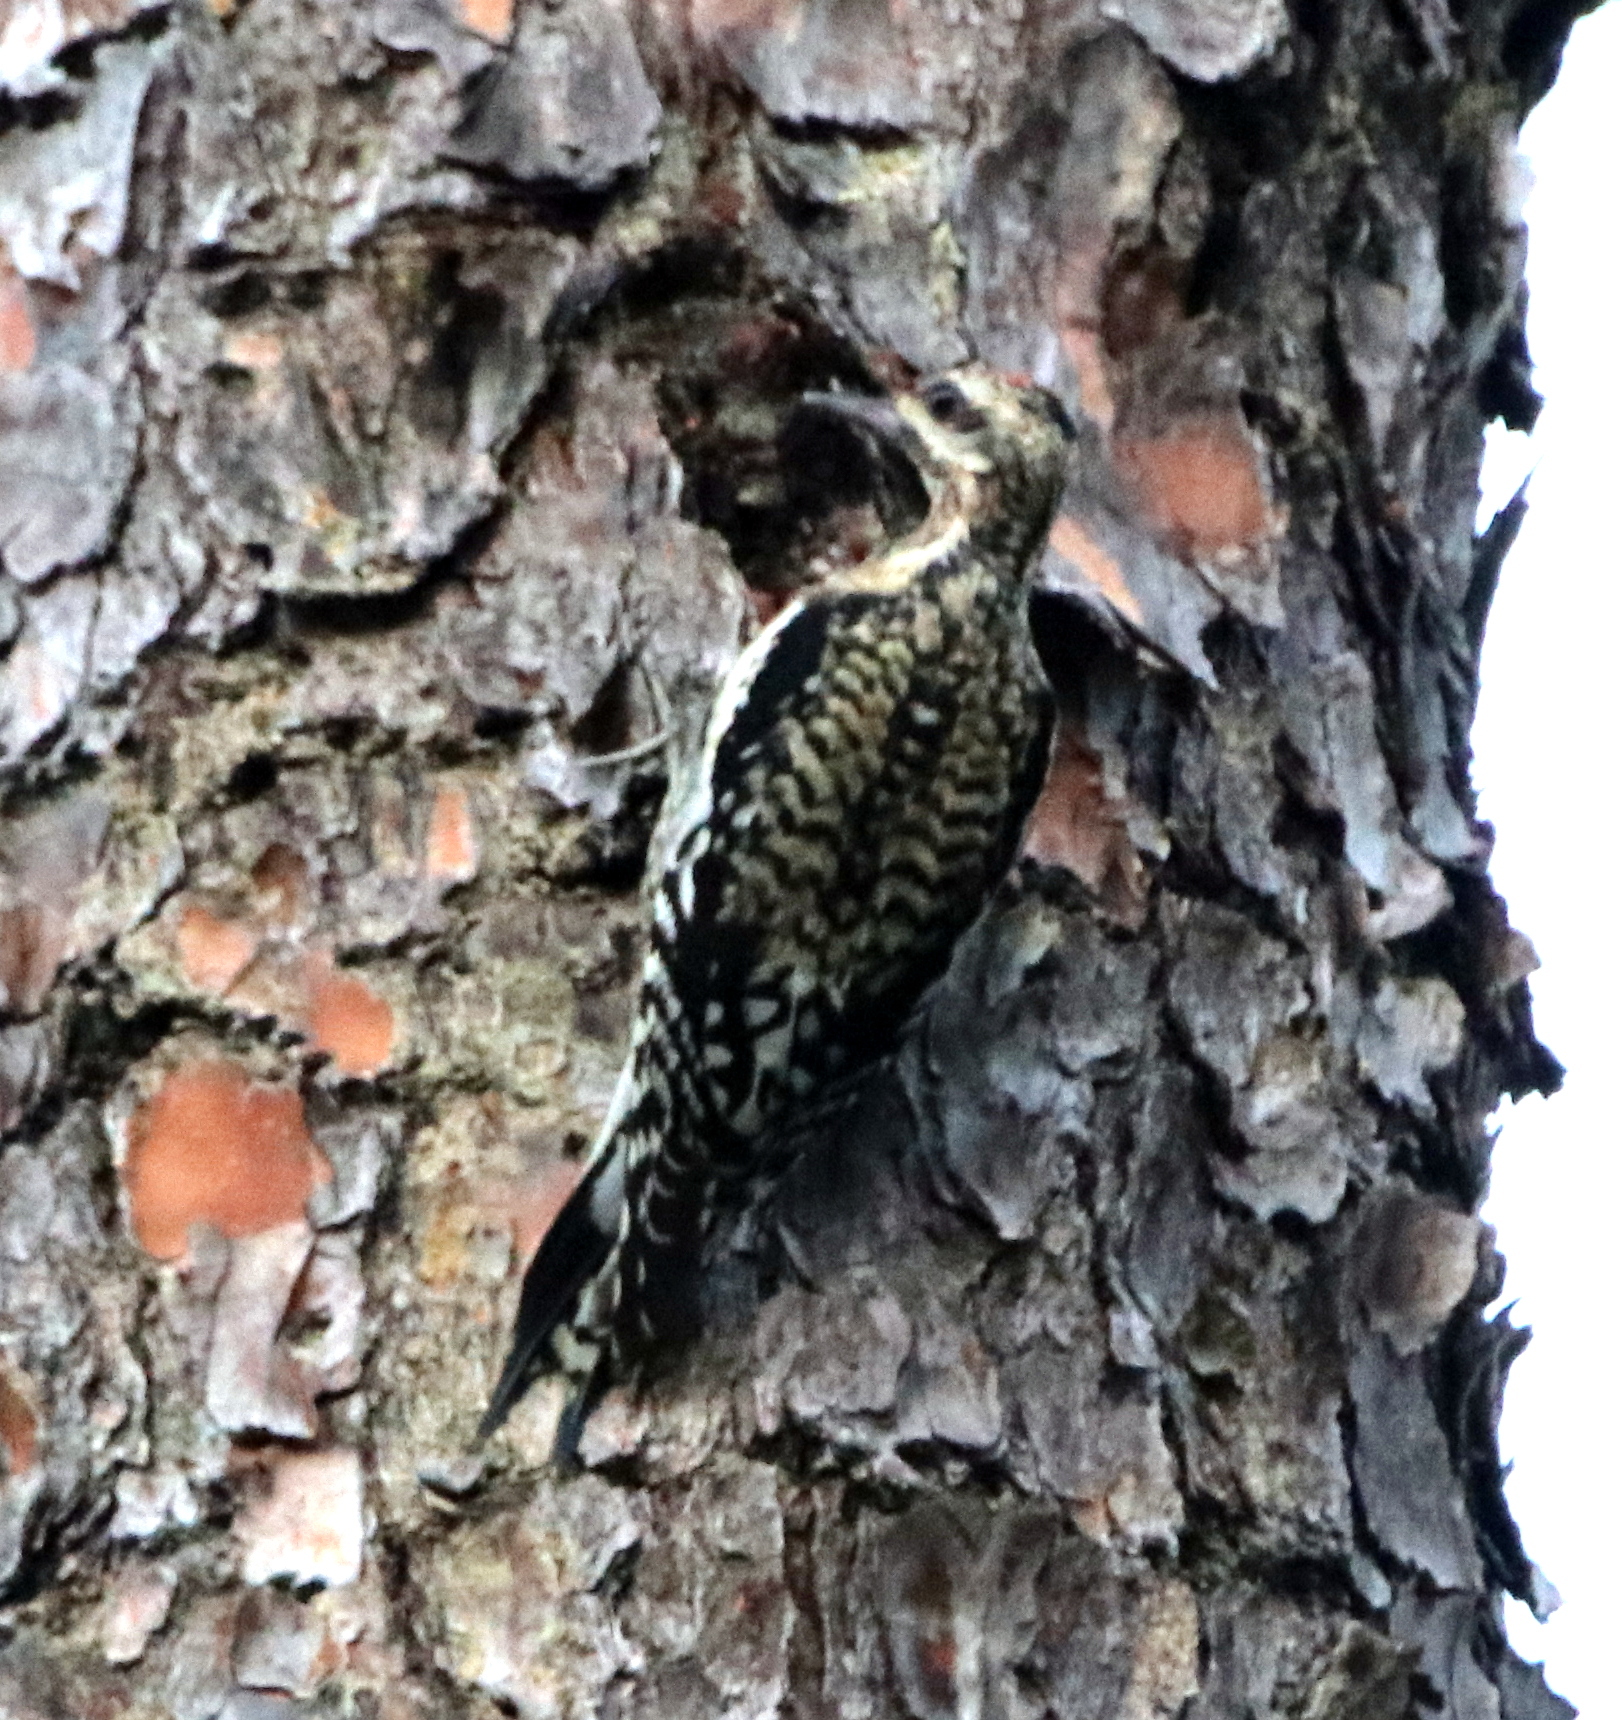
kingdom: Animalia
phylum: Chordata
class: Aves
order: Piciformes
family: Picidae
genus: Sphyrapicus
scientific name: Sphyrapicus varius
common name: Yellow-bellied sapsucker
